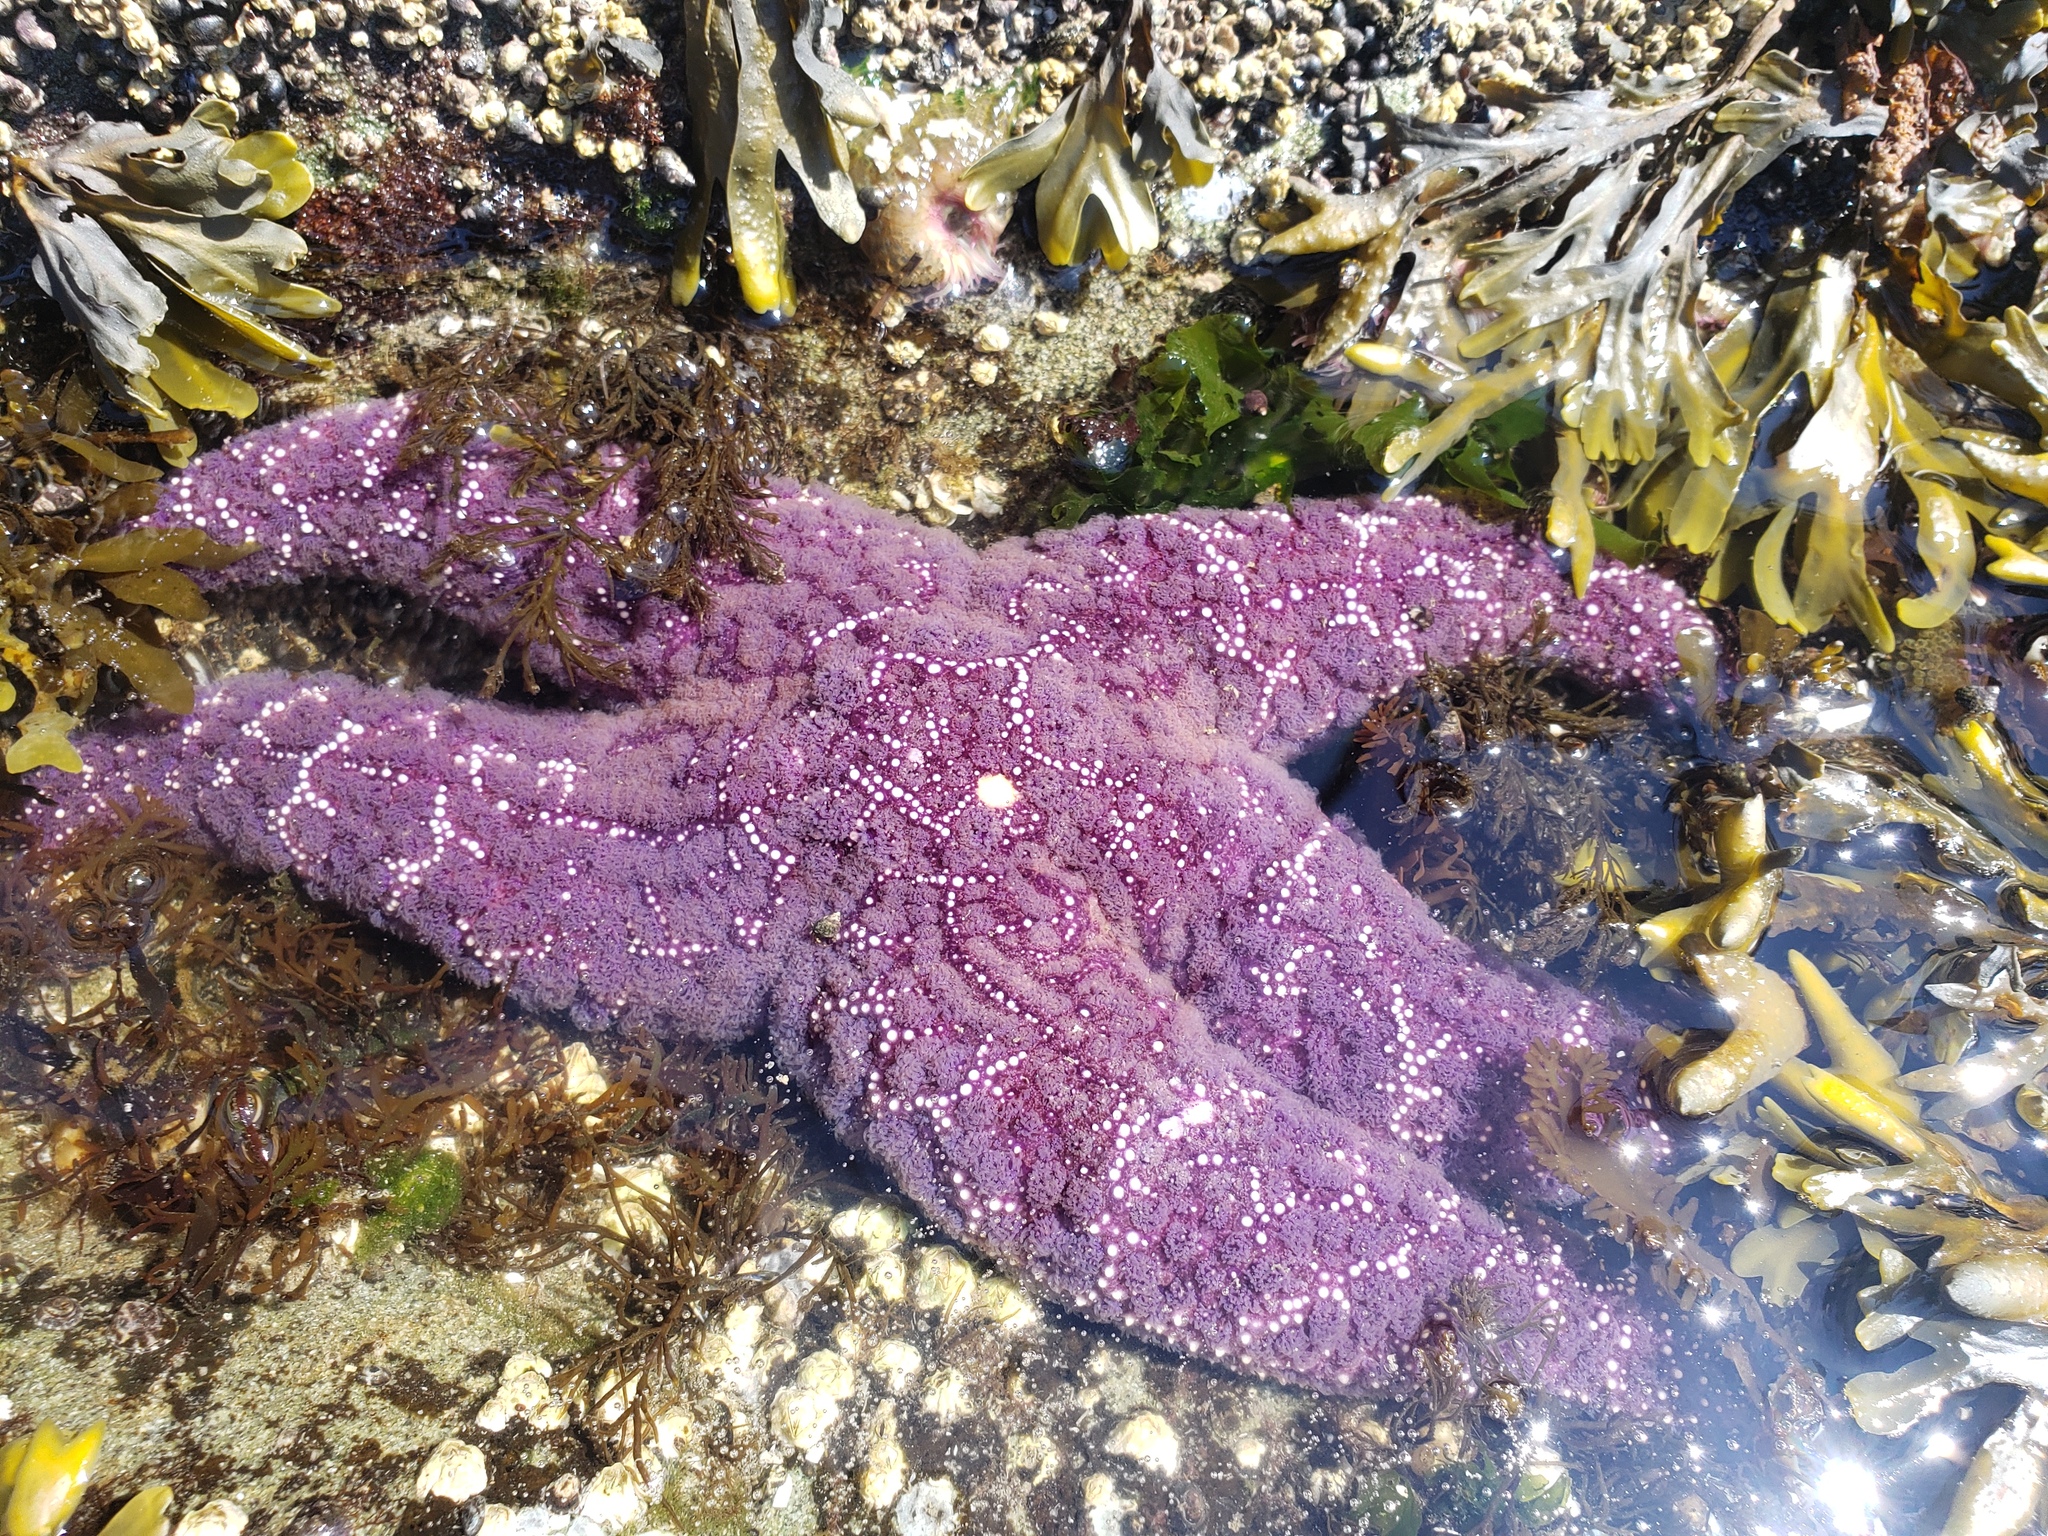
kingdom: Animalia
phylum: Echinodermata
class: Asteroidea
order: Forcipulatida
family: Asteriidae
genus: Pisaster
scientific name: Pisaster ochraceus
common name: Ochre stars
